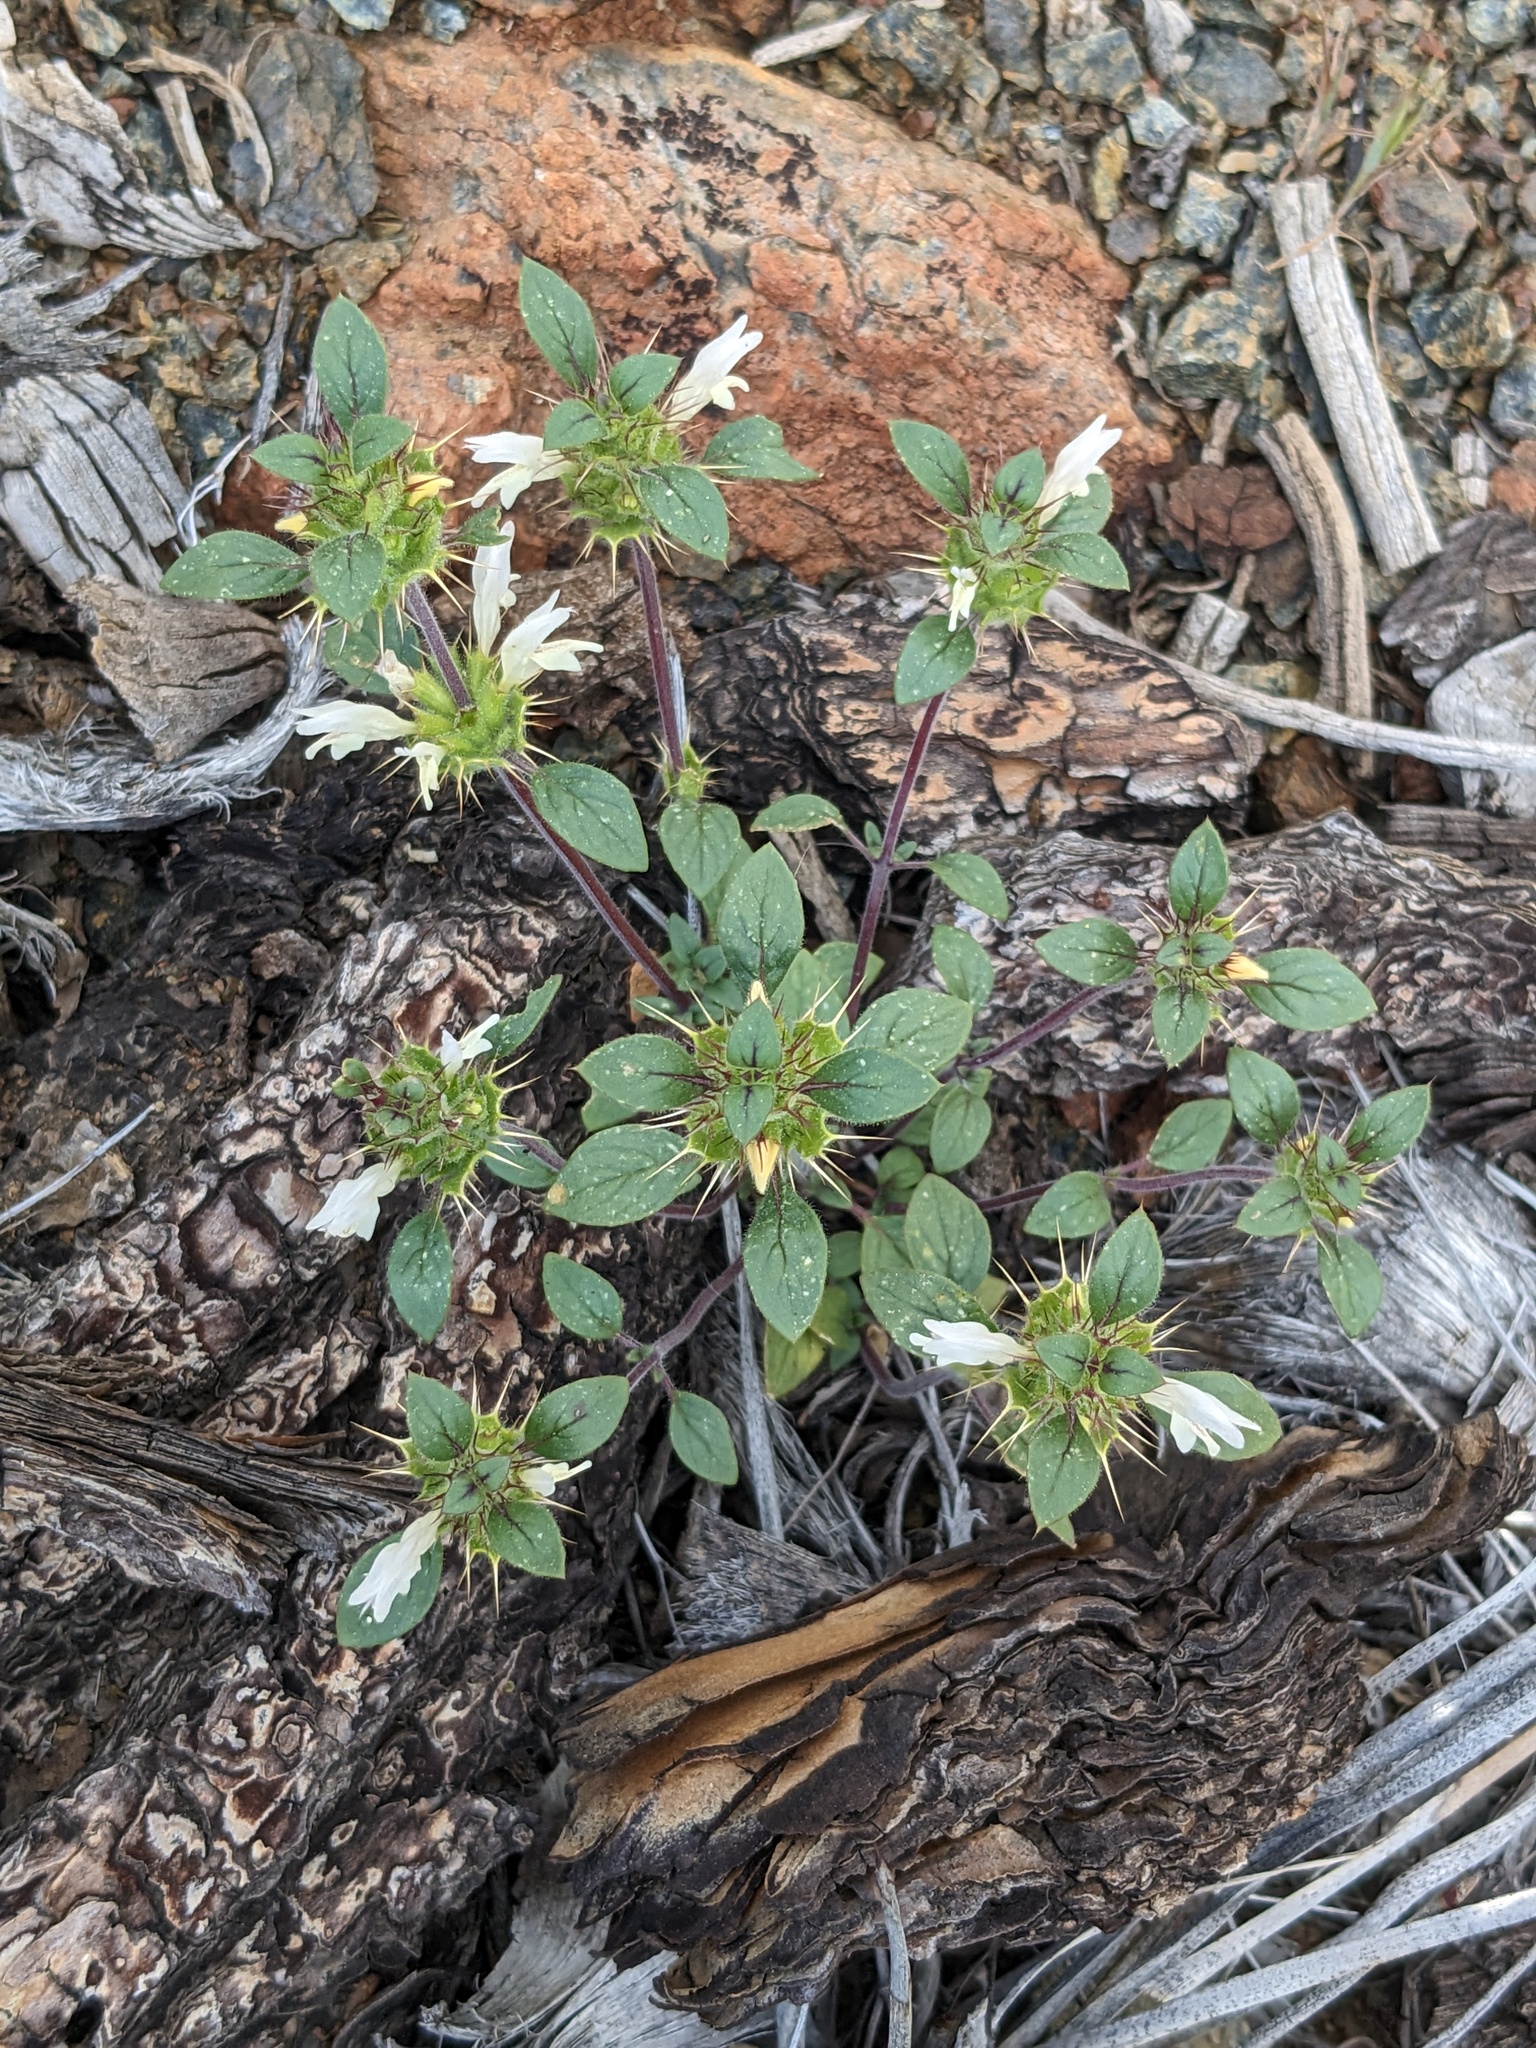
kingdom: Plantae
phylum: Tracheophyta
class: Magnoliopsida
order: Lamiales
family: Lamiaceae
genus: Acanthomintha
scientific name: Acanthomintha lanceolata
